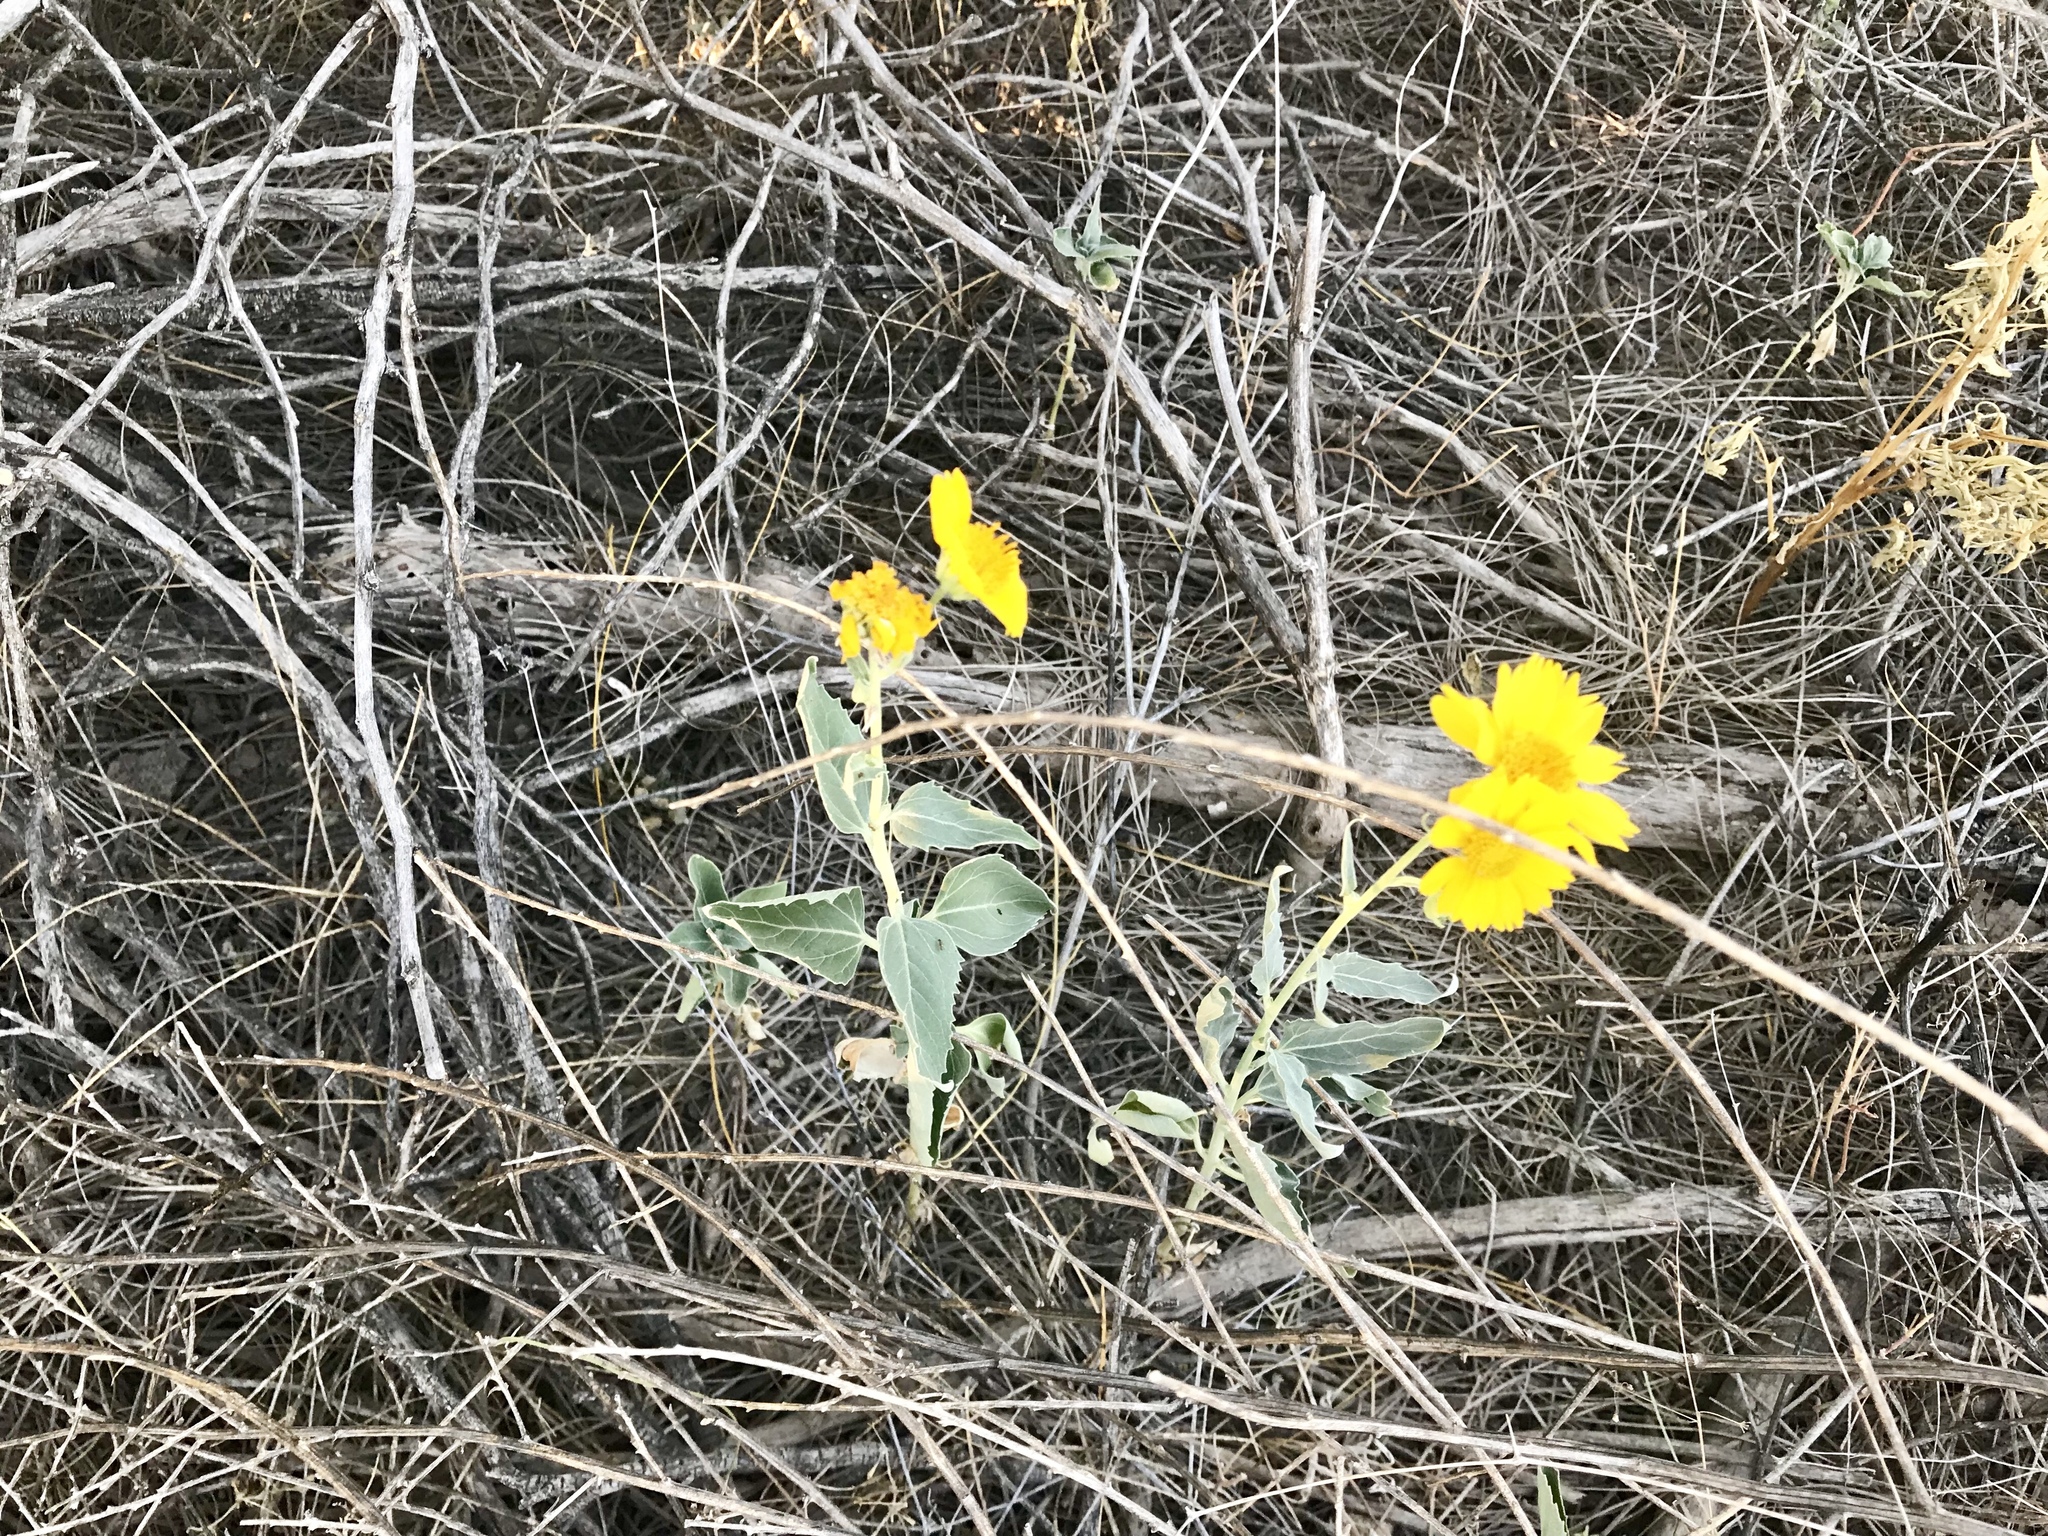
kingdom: Plantae
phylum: Tracheophyta
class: Magnoliopsida
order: Asterales
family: Asteraceae
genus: Verbesina
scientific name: Verbesina encelioides
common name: Golden crownbeard
